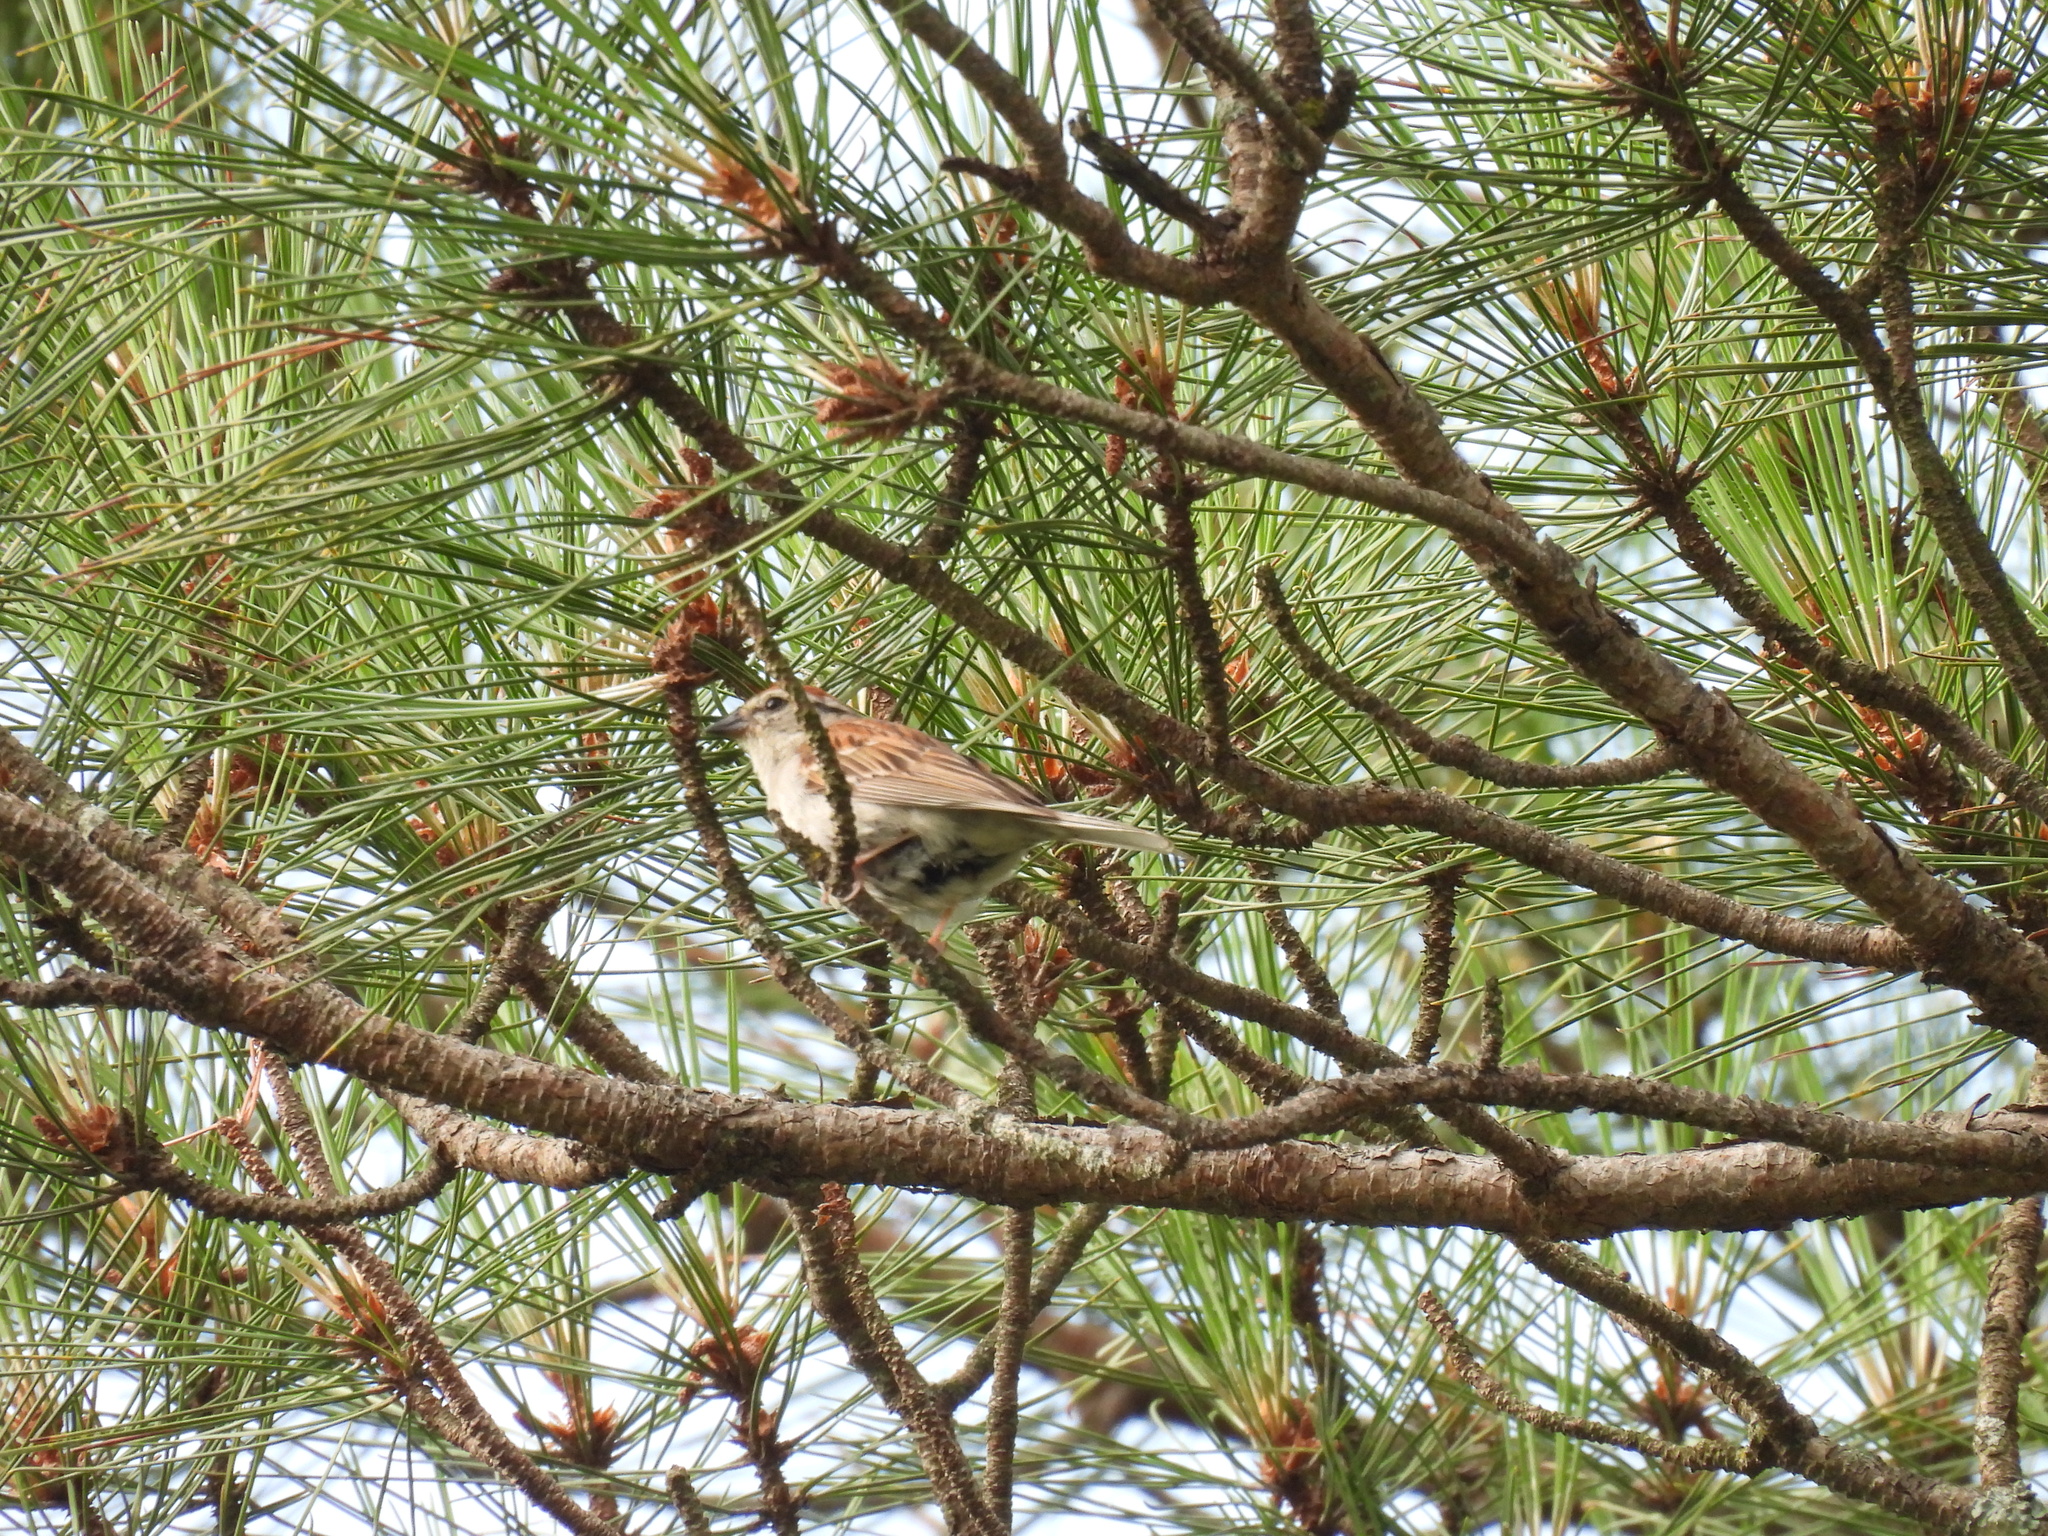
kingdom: Animalia
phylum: Chordata
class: Aves
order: Passeriformes
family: Passerellidae
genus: Spizella
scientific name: Spizella passerina
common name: Chipping sparrow
